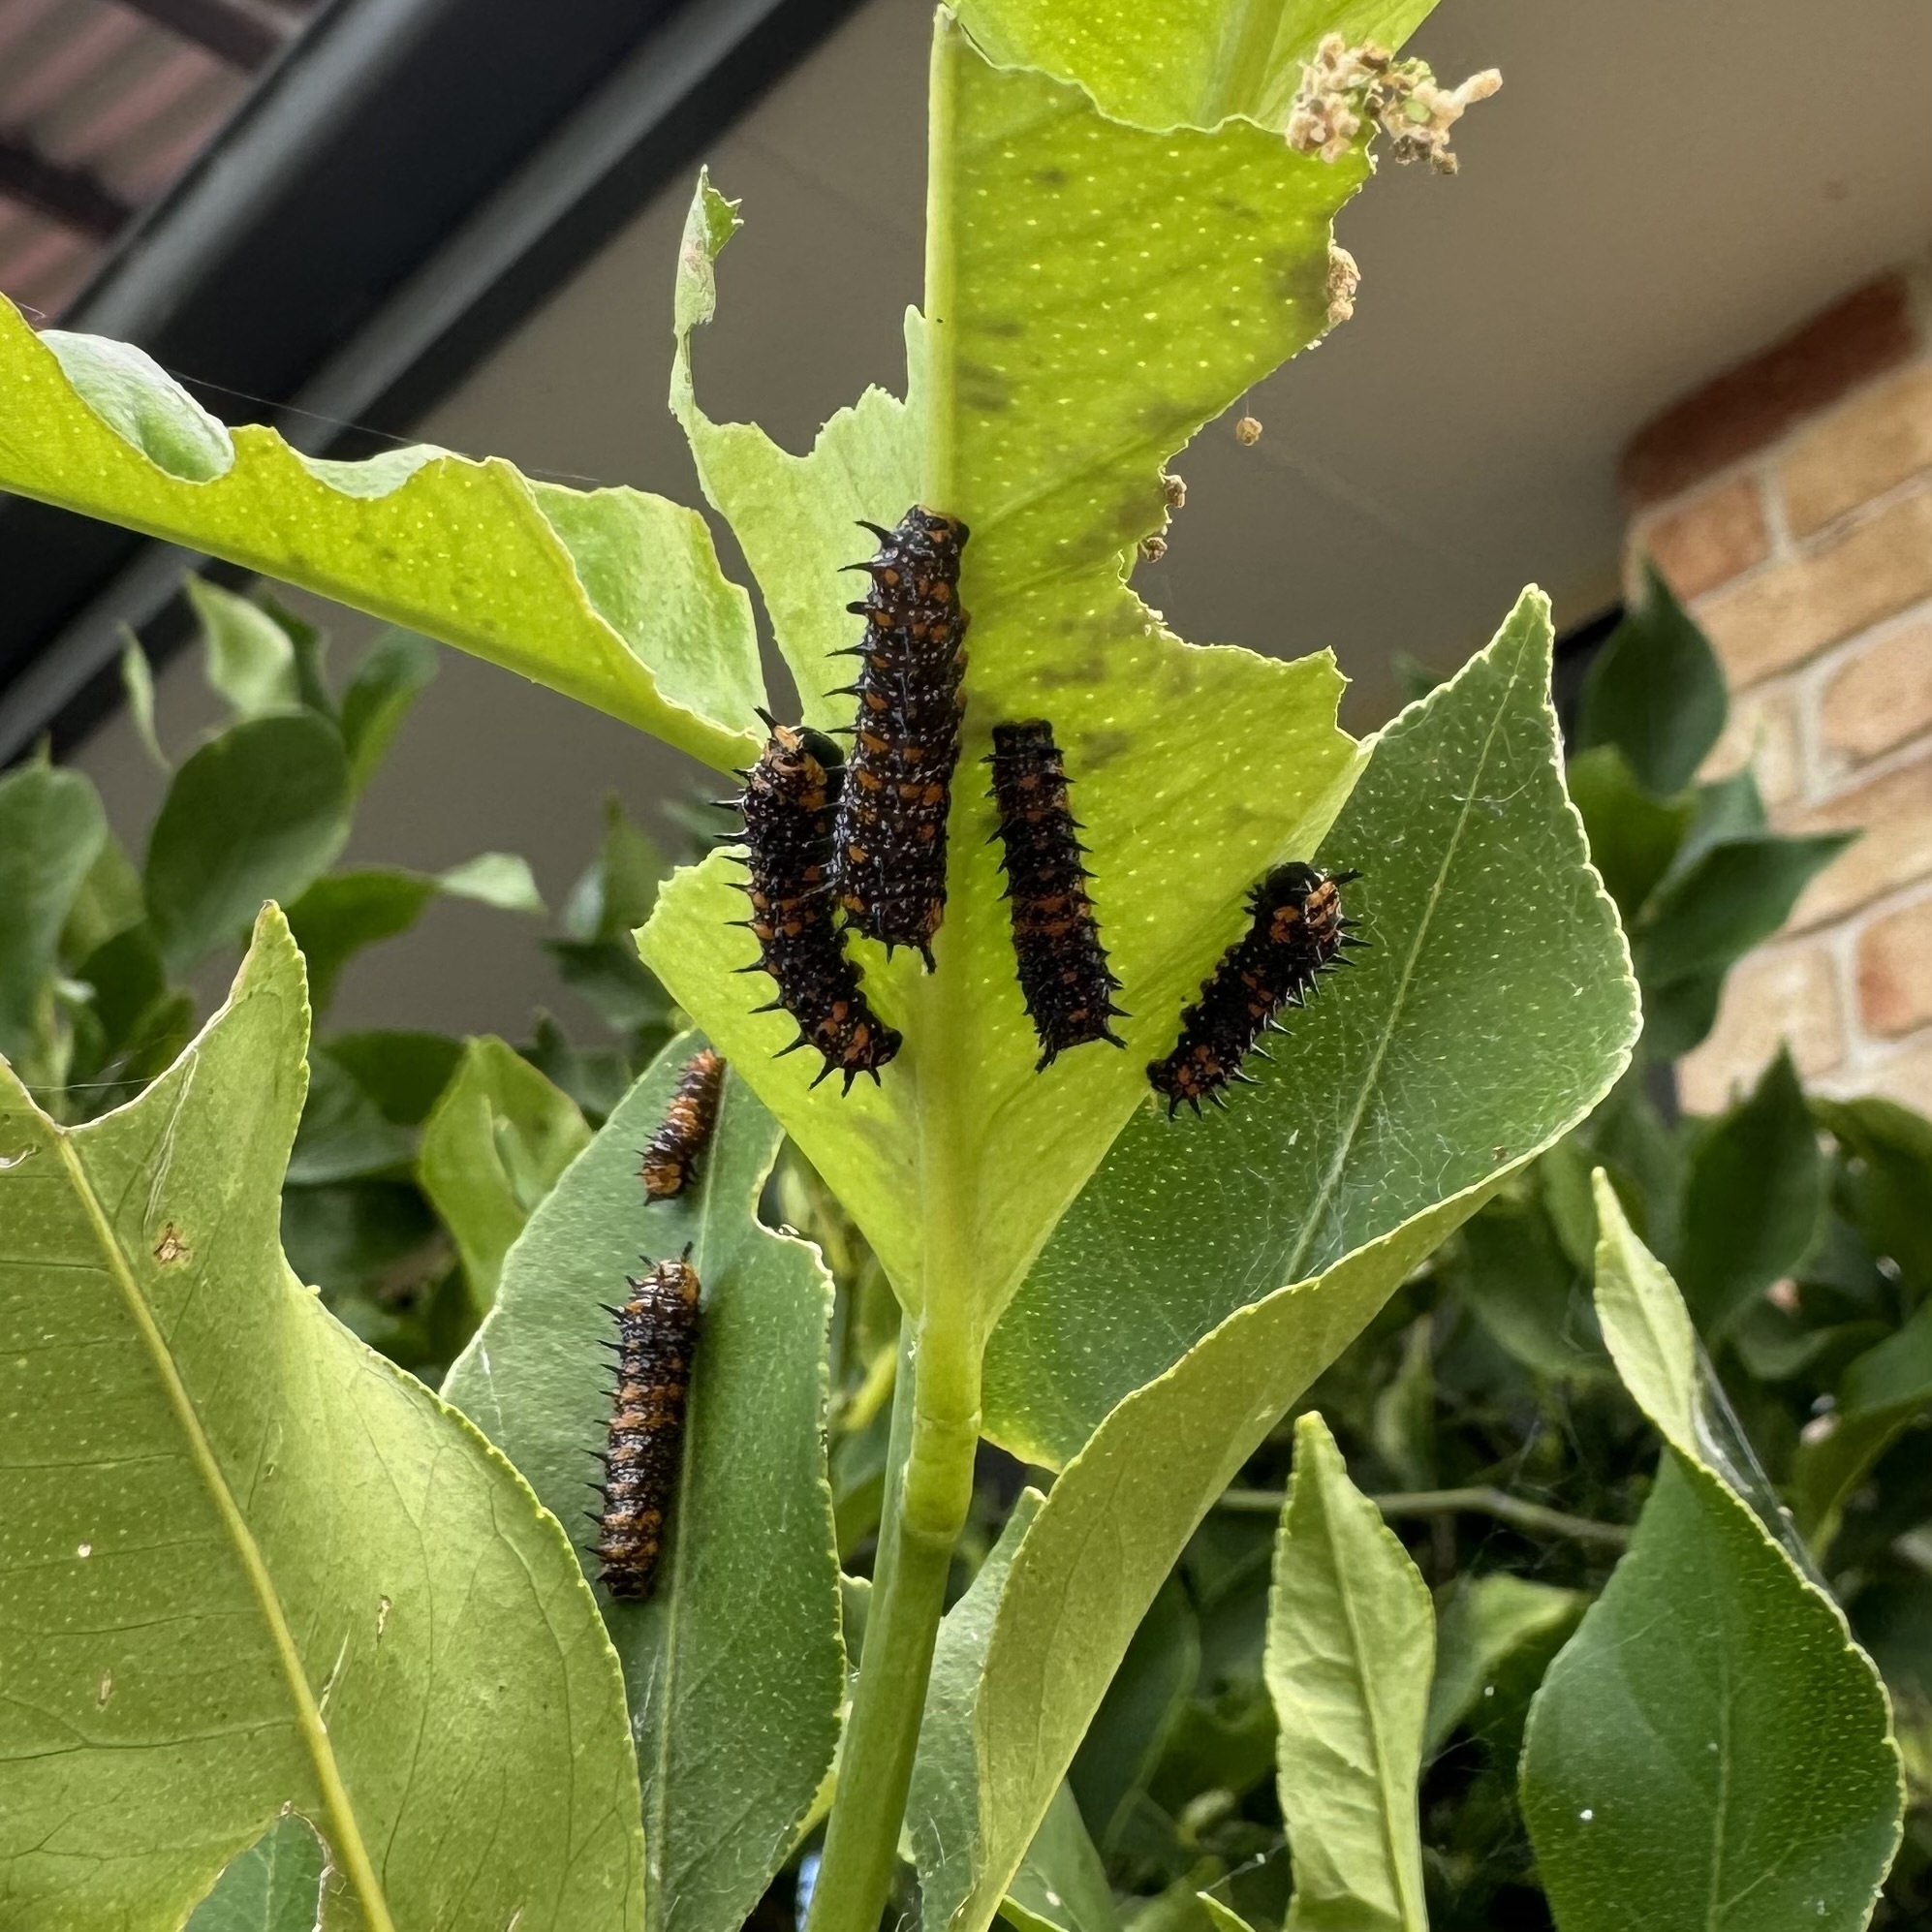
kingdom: Animalia
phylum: Arthropoda
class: Insecta
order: Lepidoptera
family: Papilionidae
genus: Papilio
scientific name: Papilio anactus
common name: Dingy swallowtail
